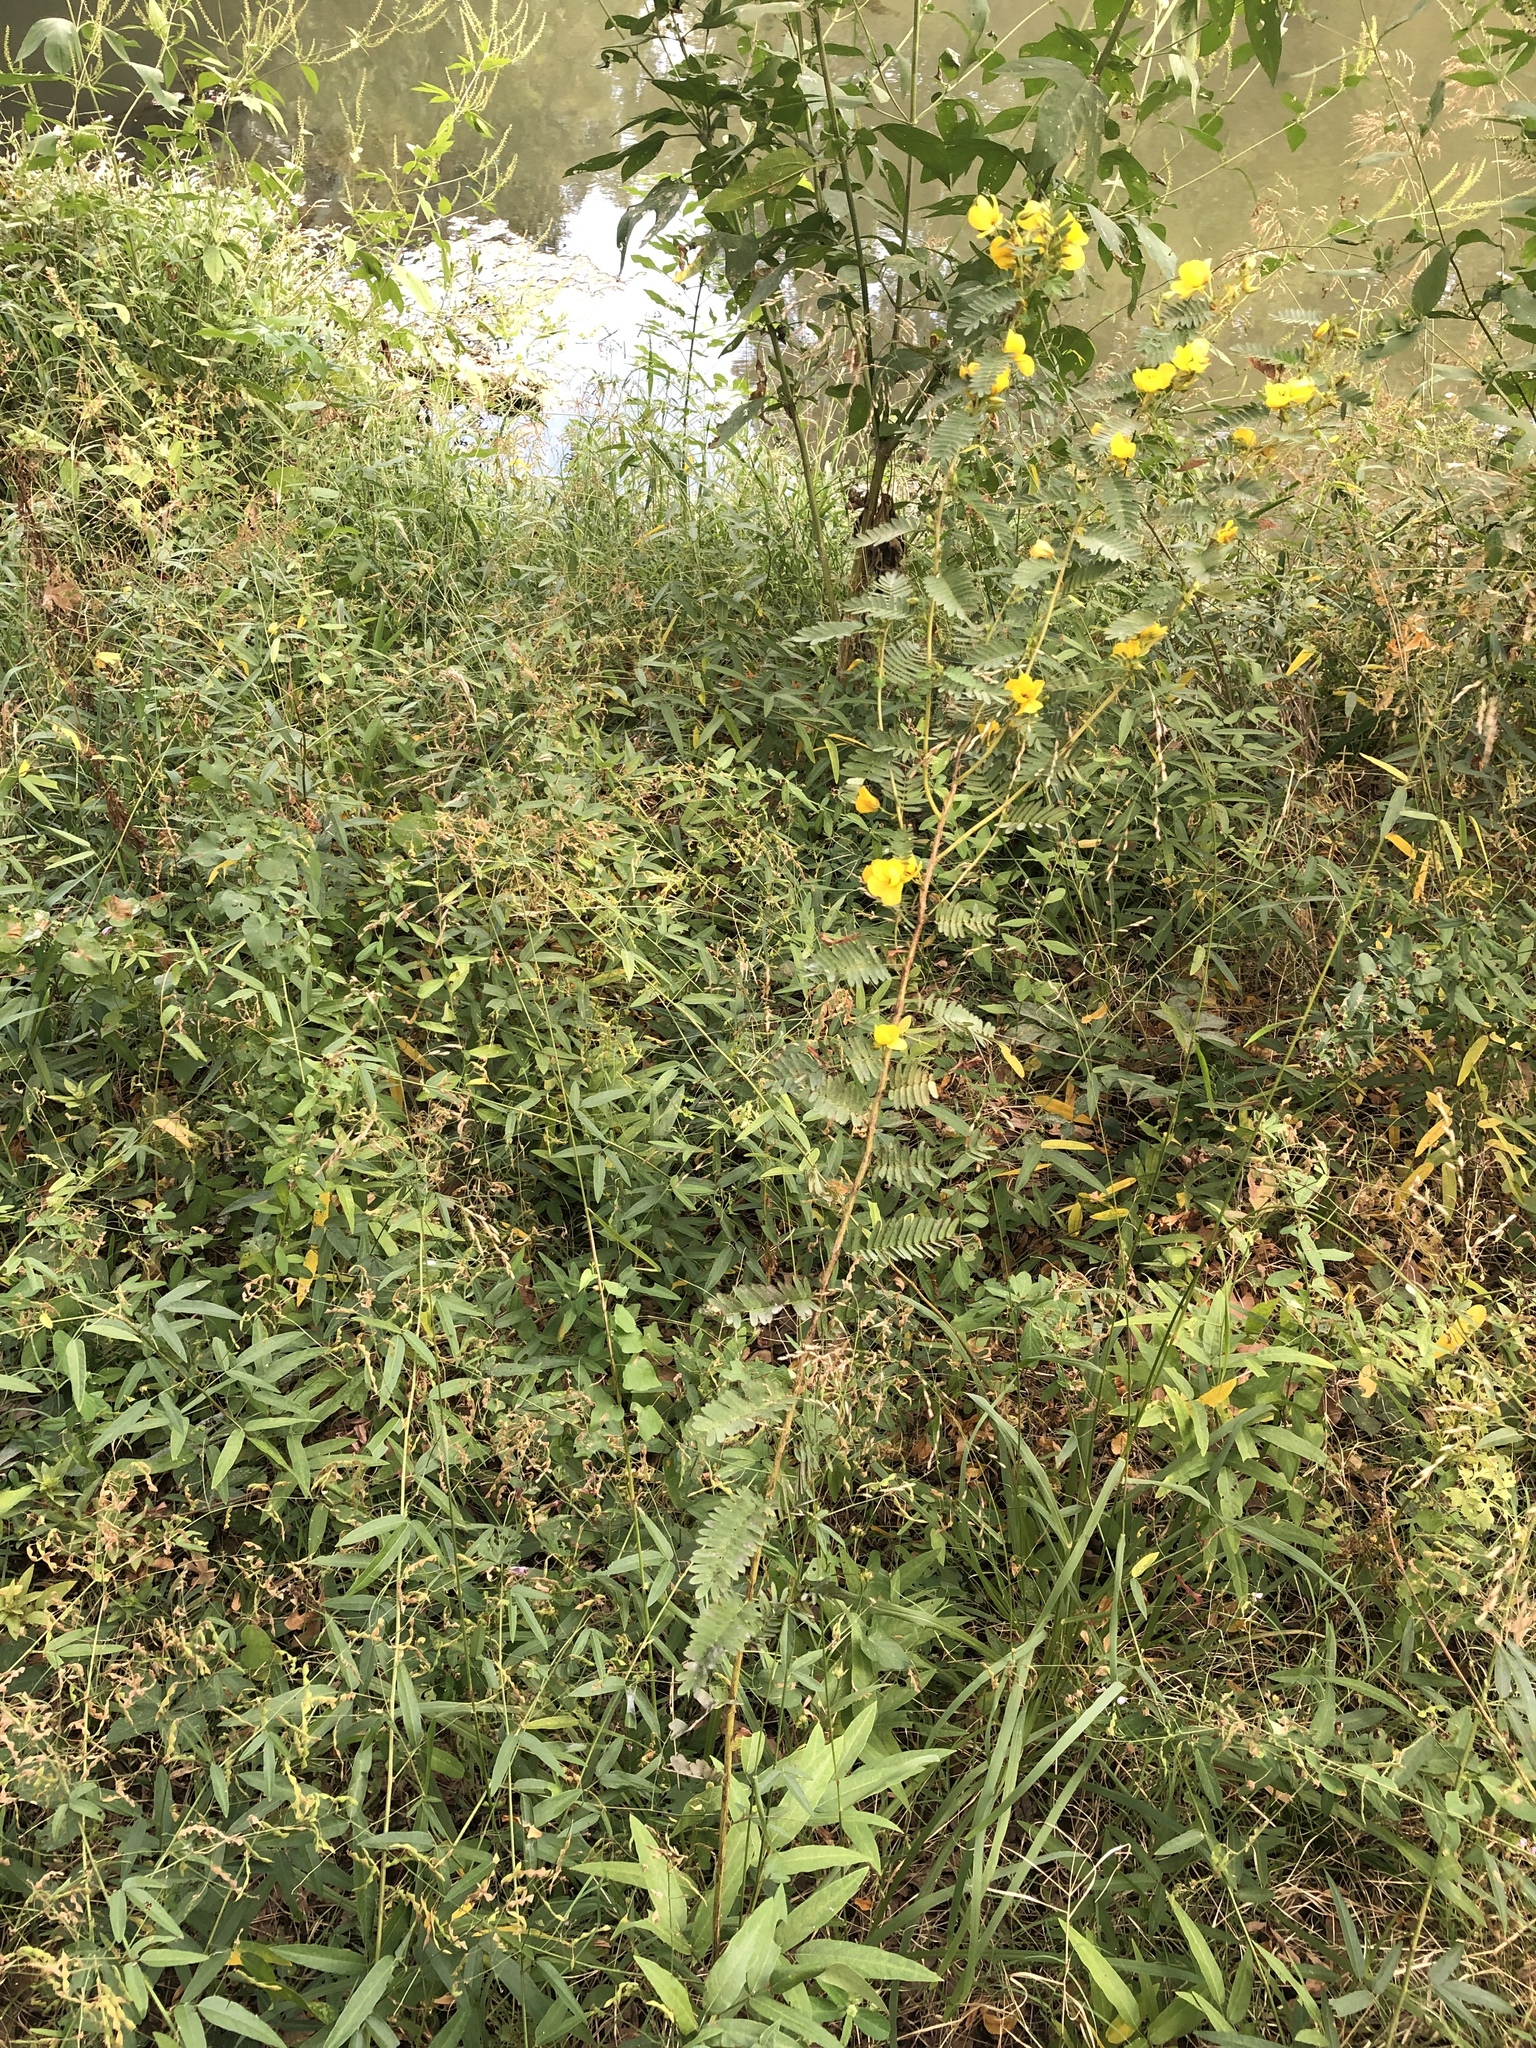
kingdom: Plantae
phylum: Tracheophyta
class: Magnoliopsida
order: Fabales
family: Fabaceae
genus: Chamaecrista
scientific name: Chamaecrista fasciculata
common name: Golden cassia
